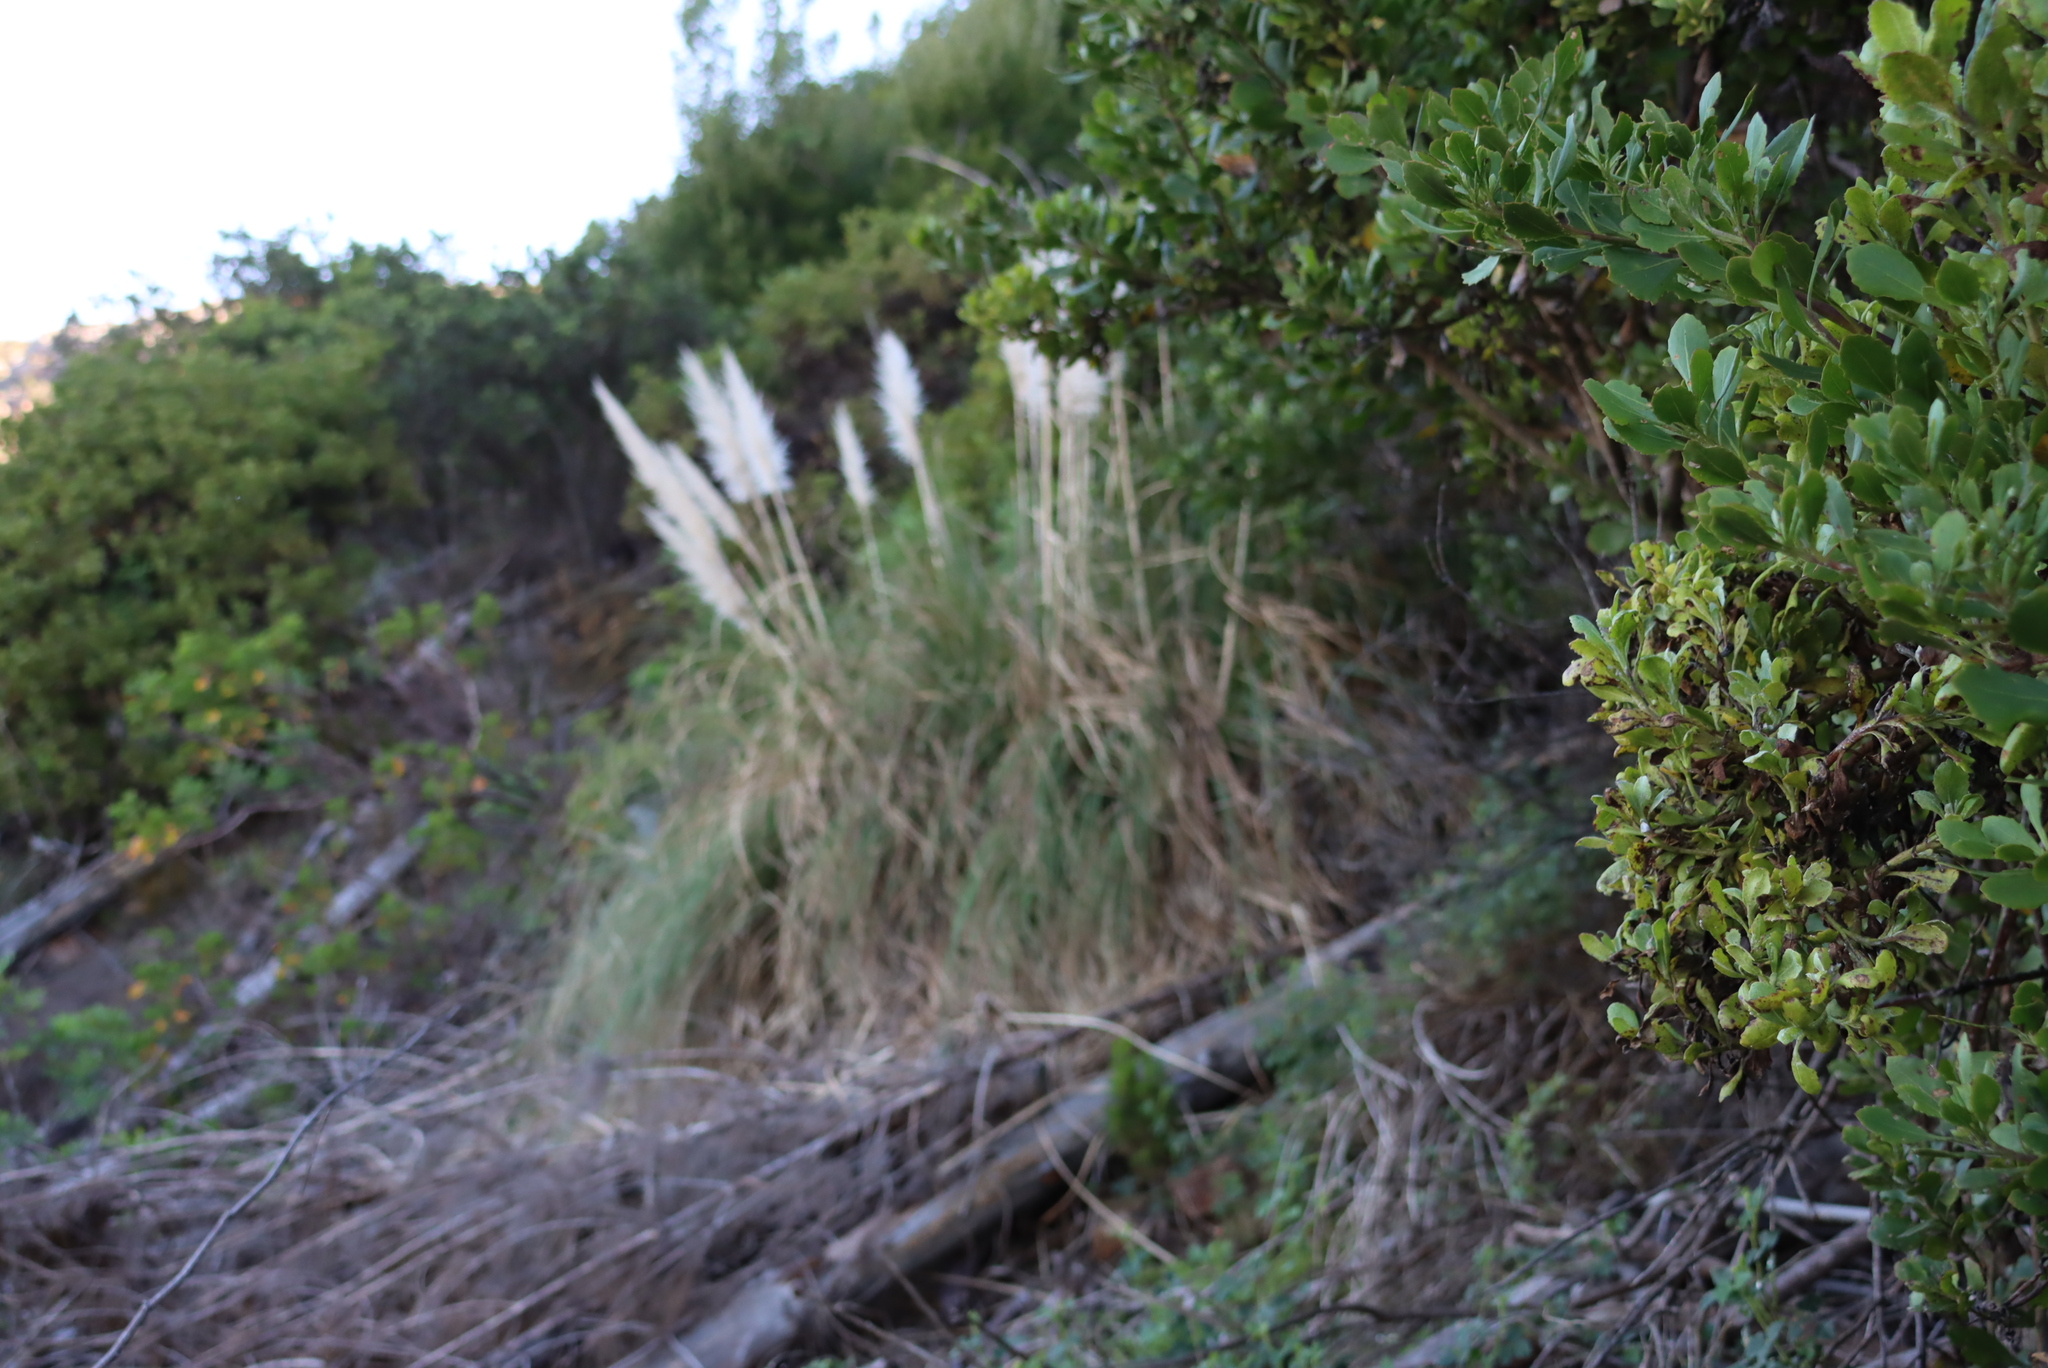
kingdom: Plantae
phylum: Tracheophyta
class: Liliopsida
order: Poales
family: Poaceae
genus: Cortaderia
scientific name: Cortaderia selloana
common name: Uruguayan pampas grass
